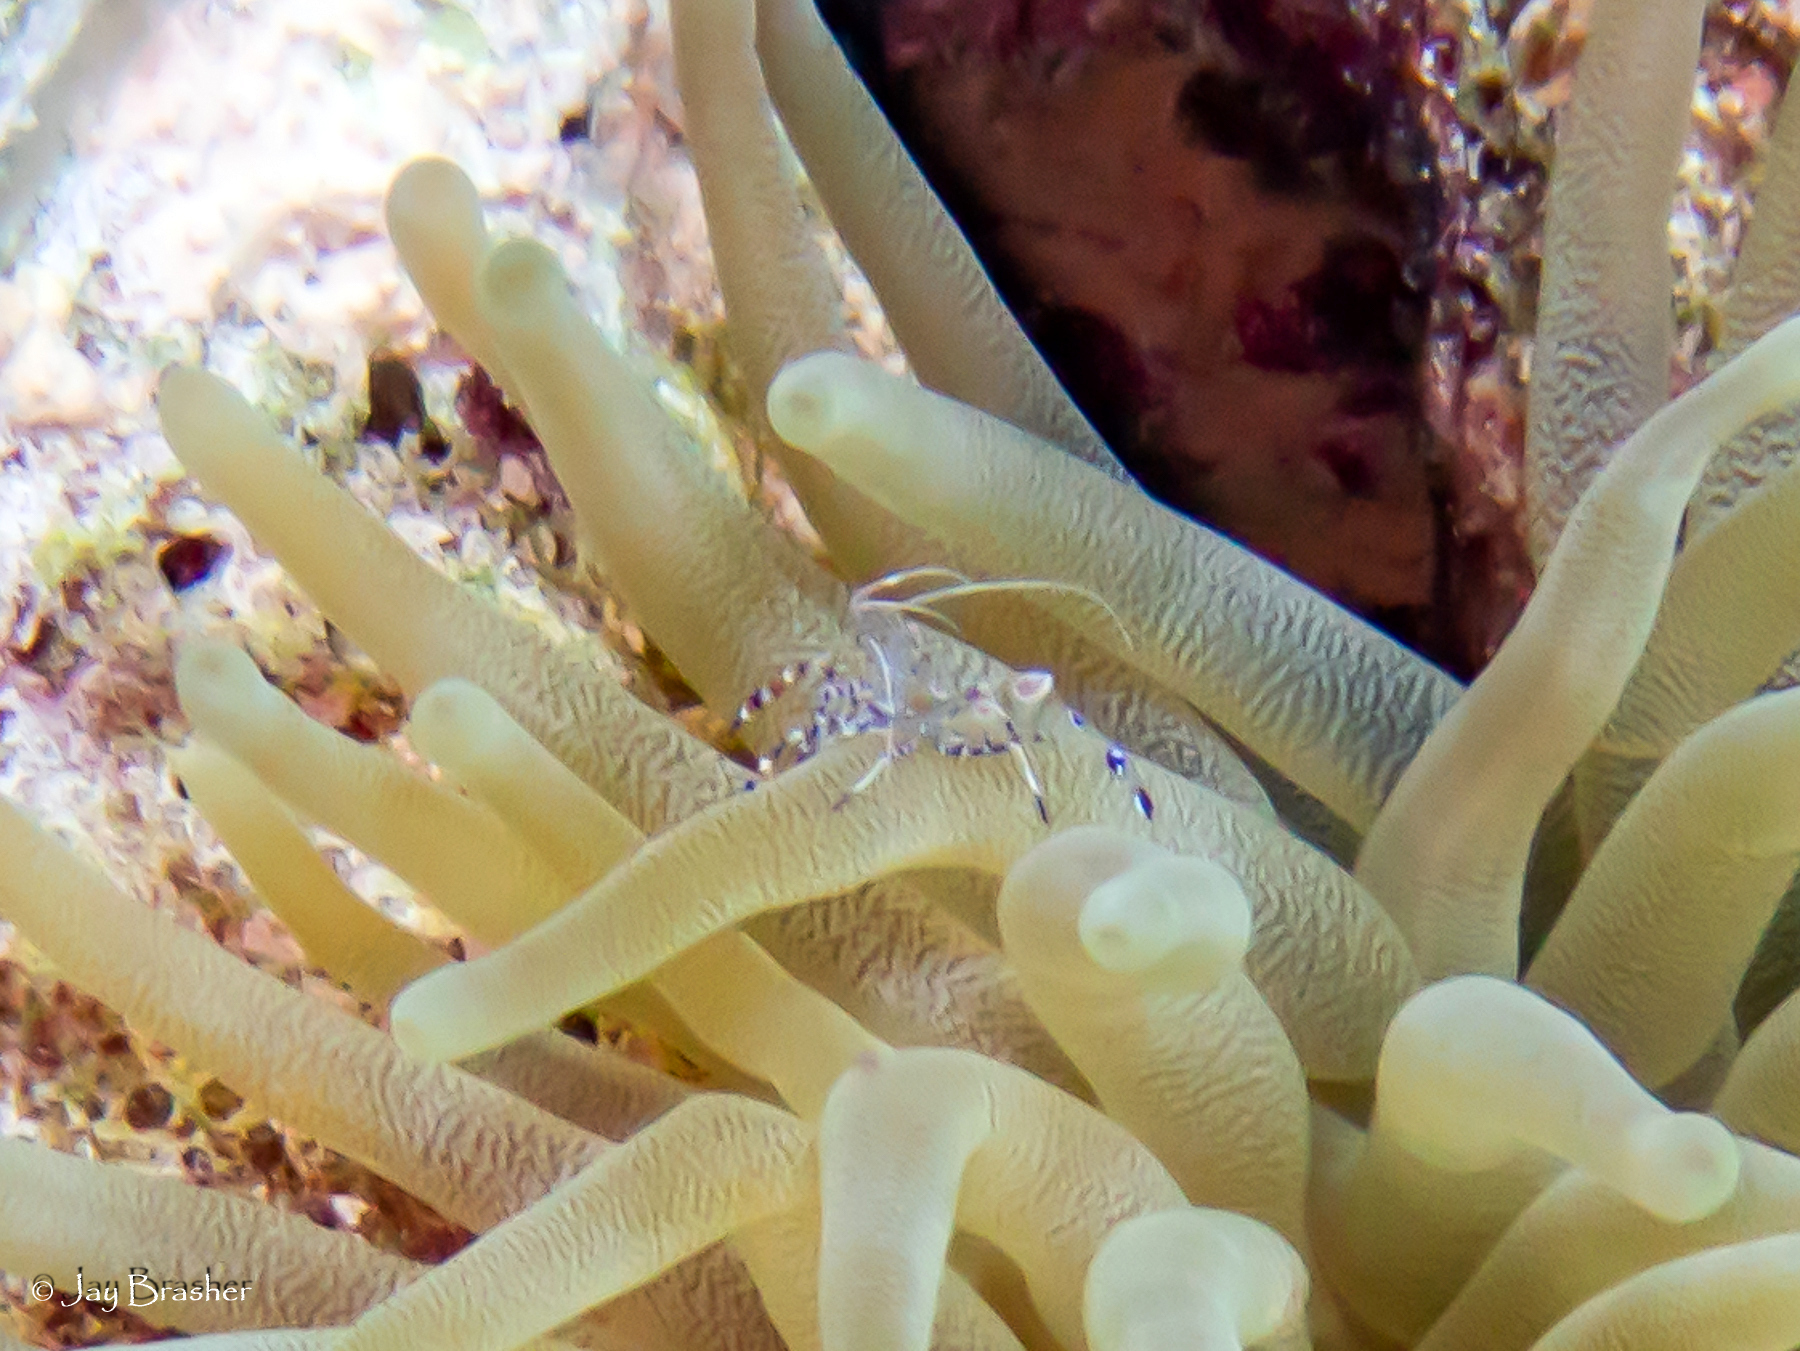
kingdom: Animalia
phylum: Arthropoda
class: Malacostraca
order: Decapoda
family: Palaemonidae
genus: Periclimenes
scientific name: Periclimenes yucatanicus
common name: Spotted cleaning shrimp
